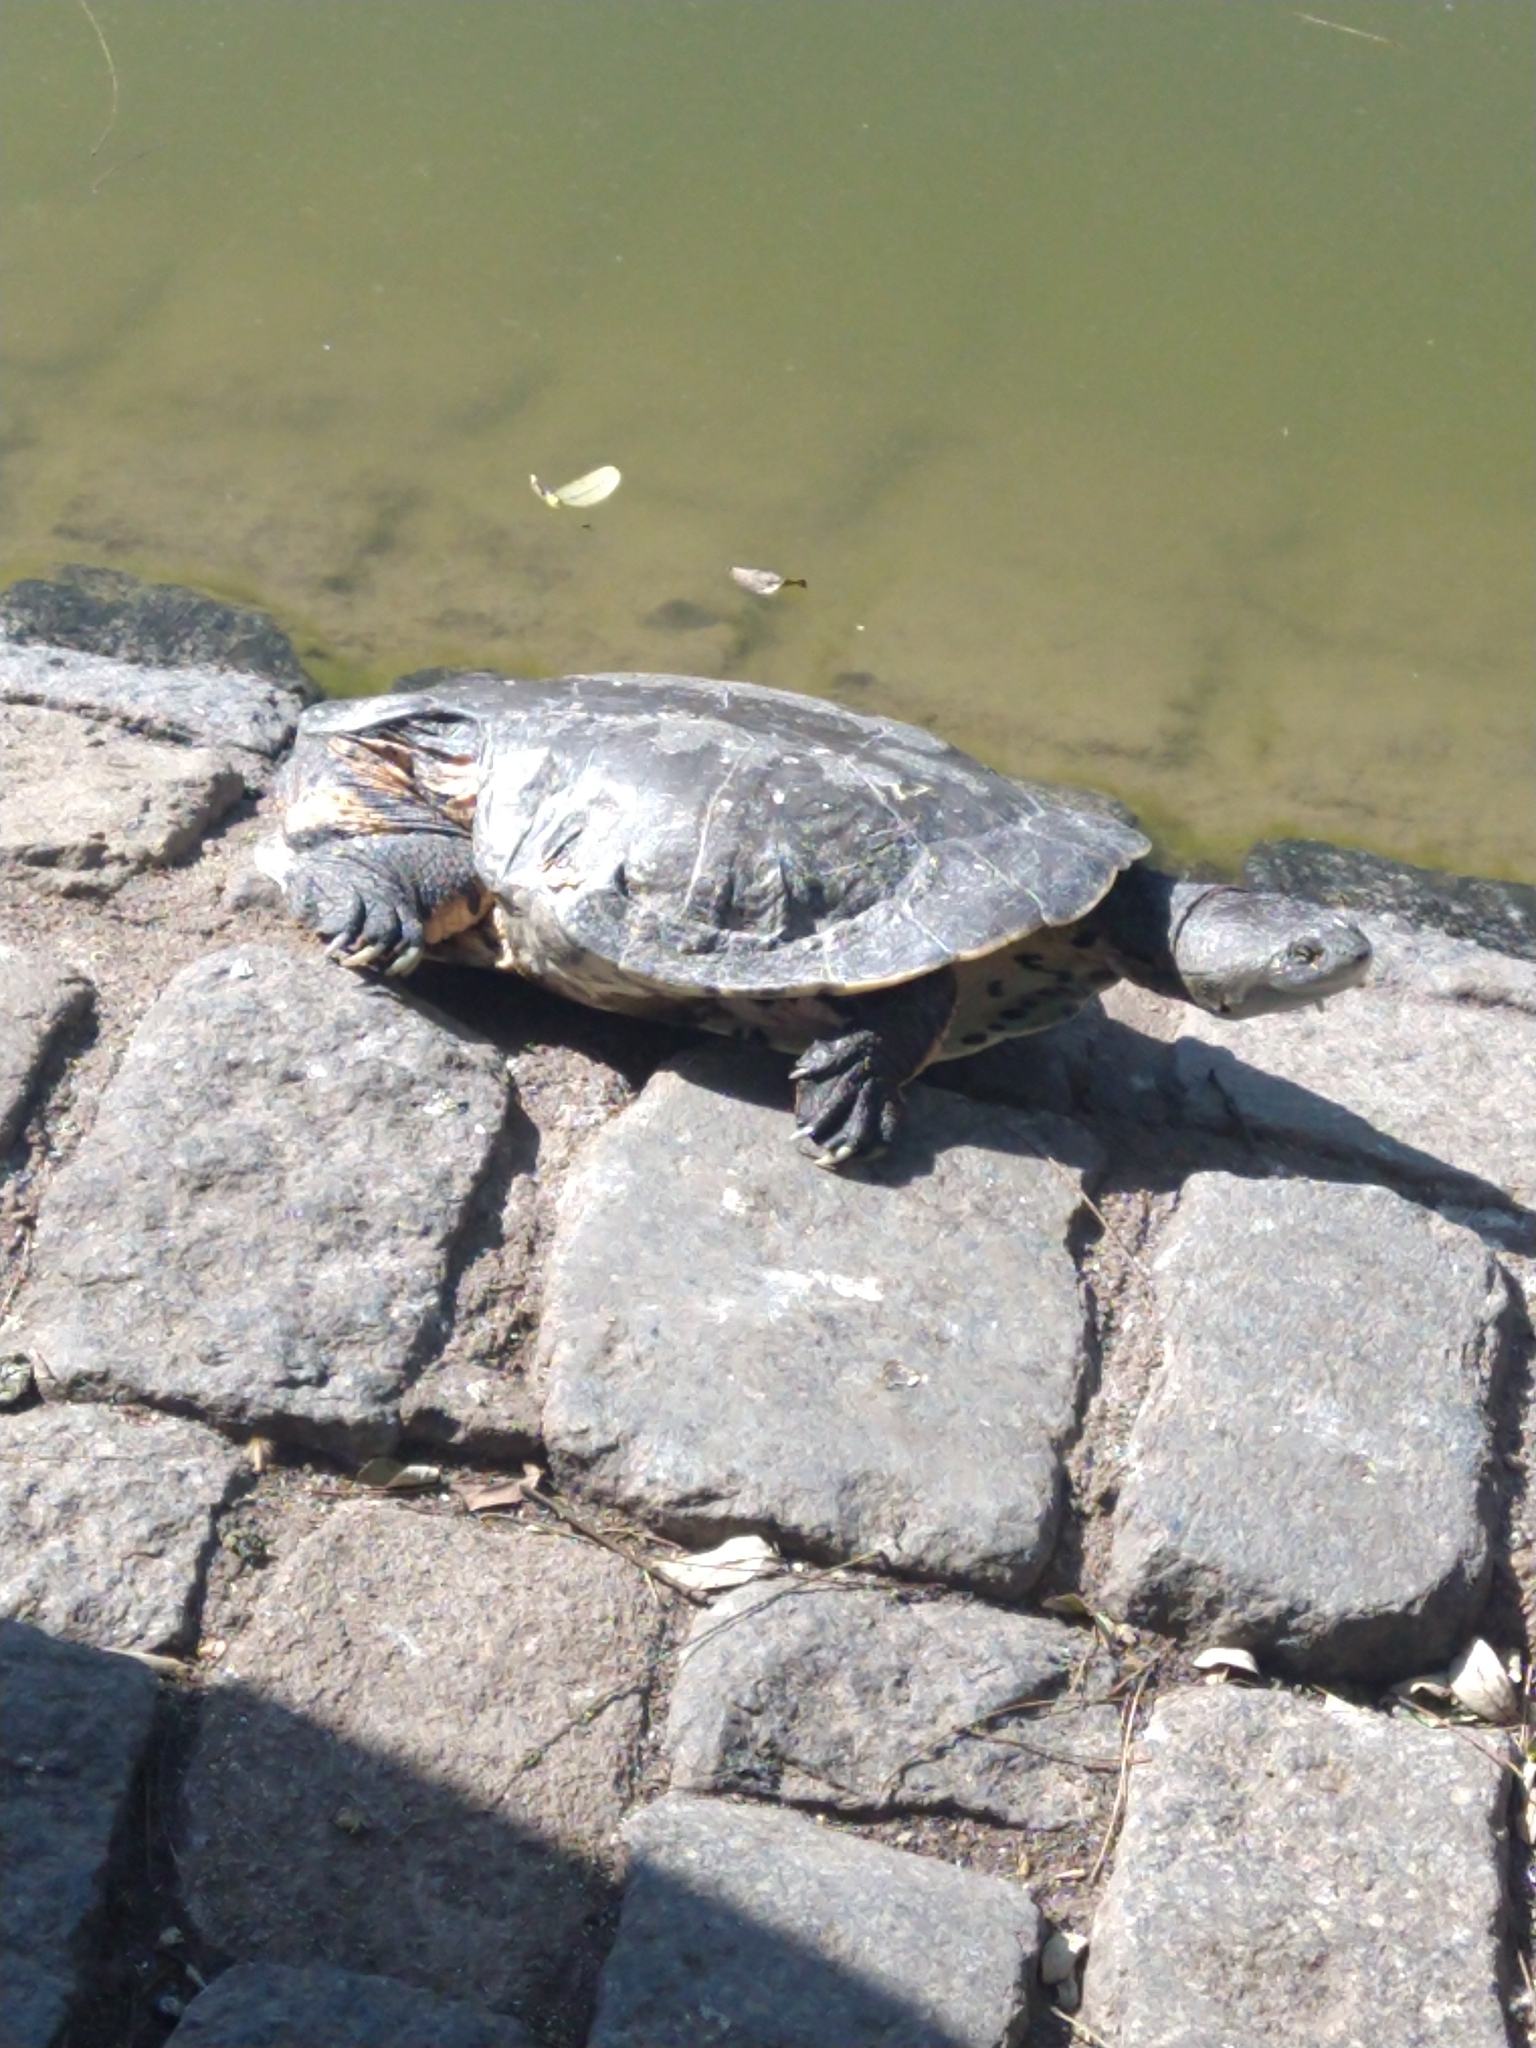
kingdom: Animalia
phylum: Chordata
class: Testudines
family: Chelidae
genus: Phrynops
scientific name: Phrynops hilarii
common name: Side-necked turtle of saint hillaire
